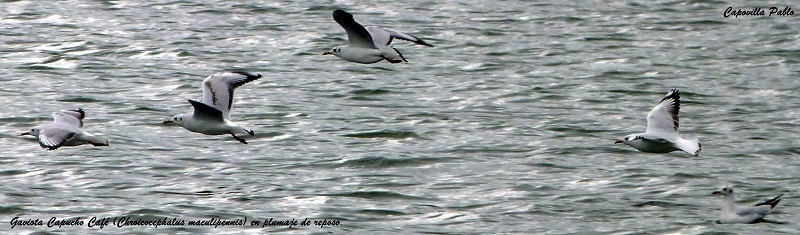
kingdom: Animalia
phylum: Chordata
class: Aves
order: Charadriiformes
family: Laridae
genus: Chroicocephalus
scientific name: Chroicocephalus maculipennis
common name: Brown-hooded gull
